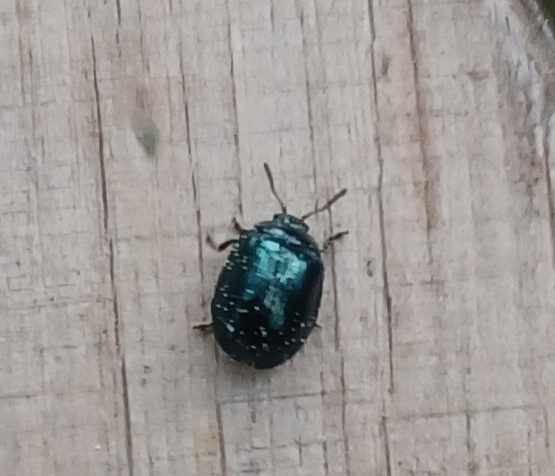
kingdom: Animalia
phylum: Arthropoda
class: Insecta
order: Coleoptera
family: Chrysomelidae
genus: Plagiodera
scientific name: Plagiodera versicolora
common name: Imported willow leaf beetle
